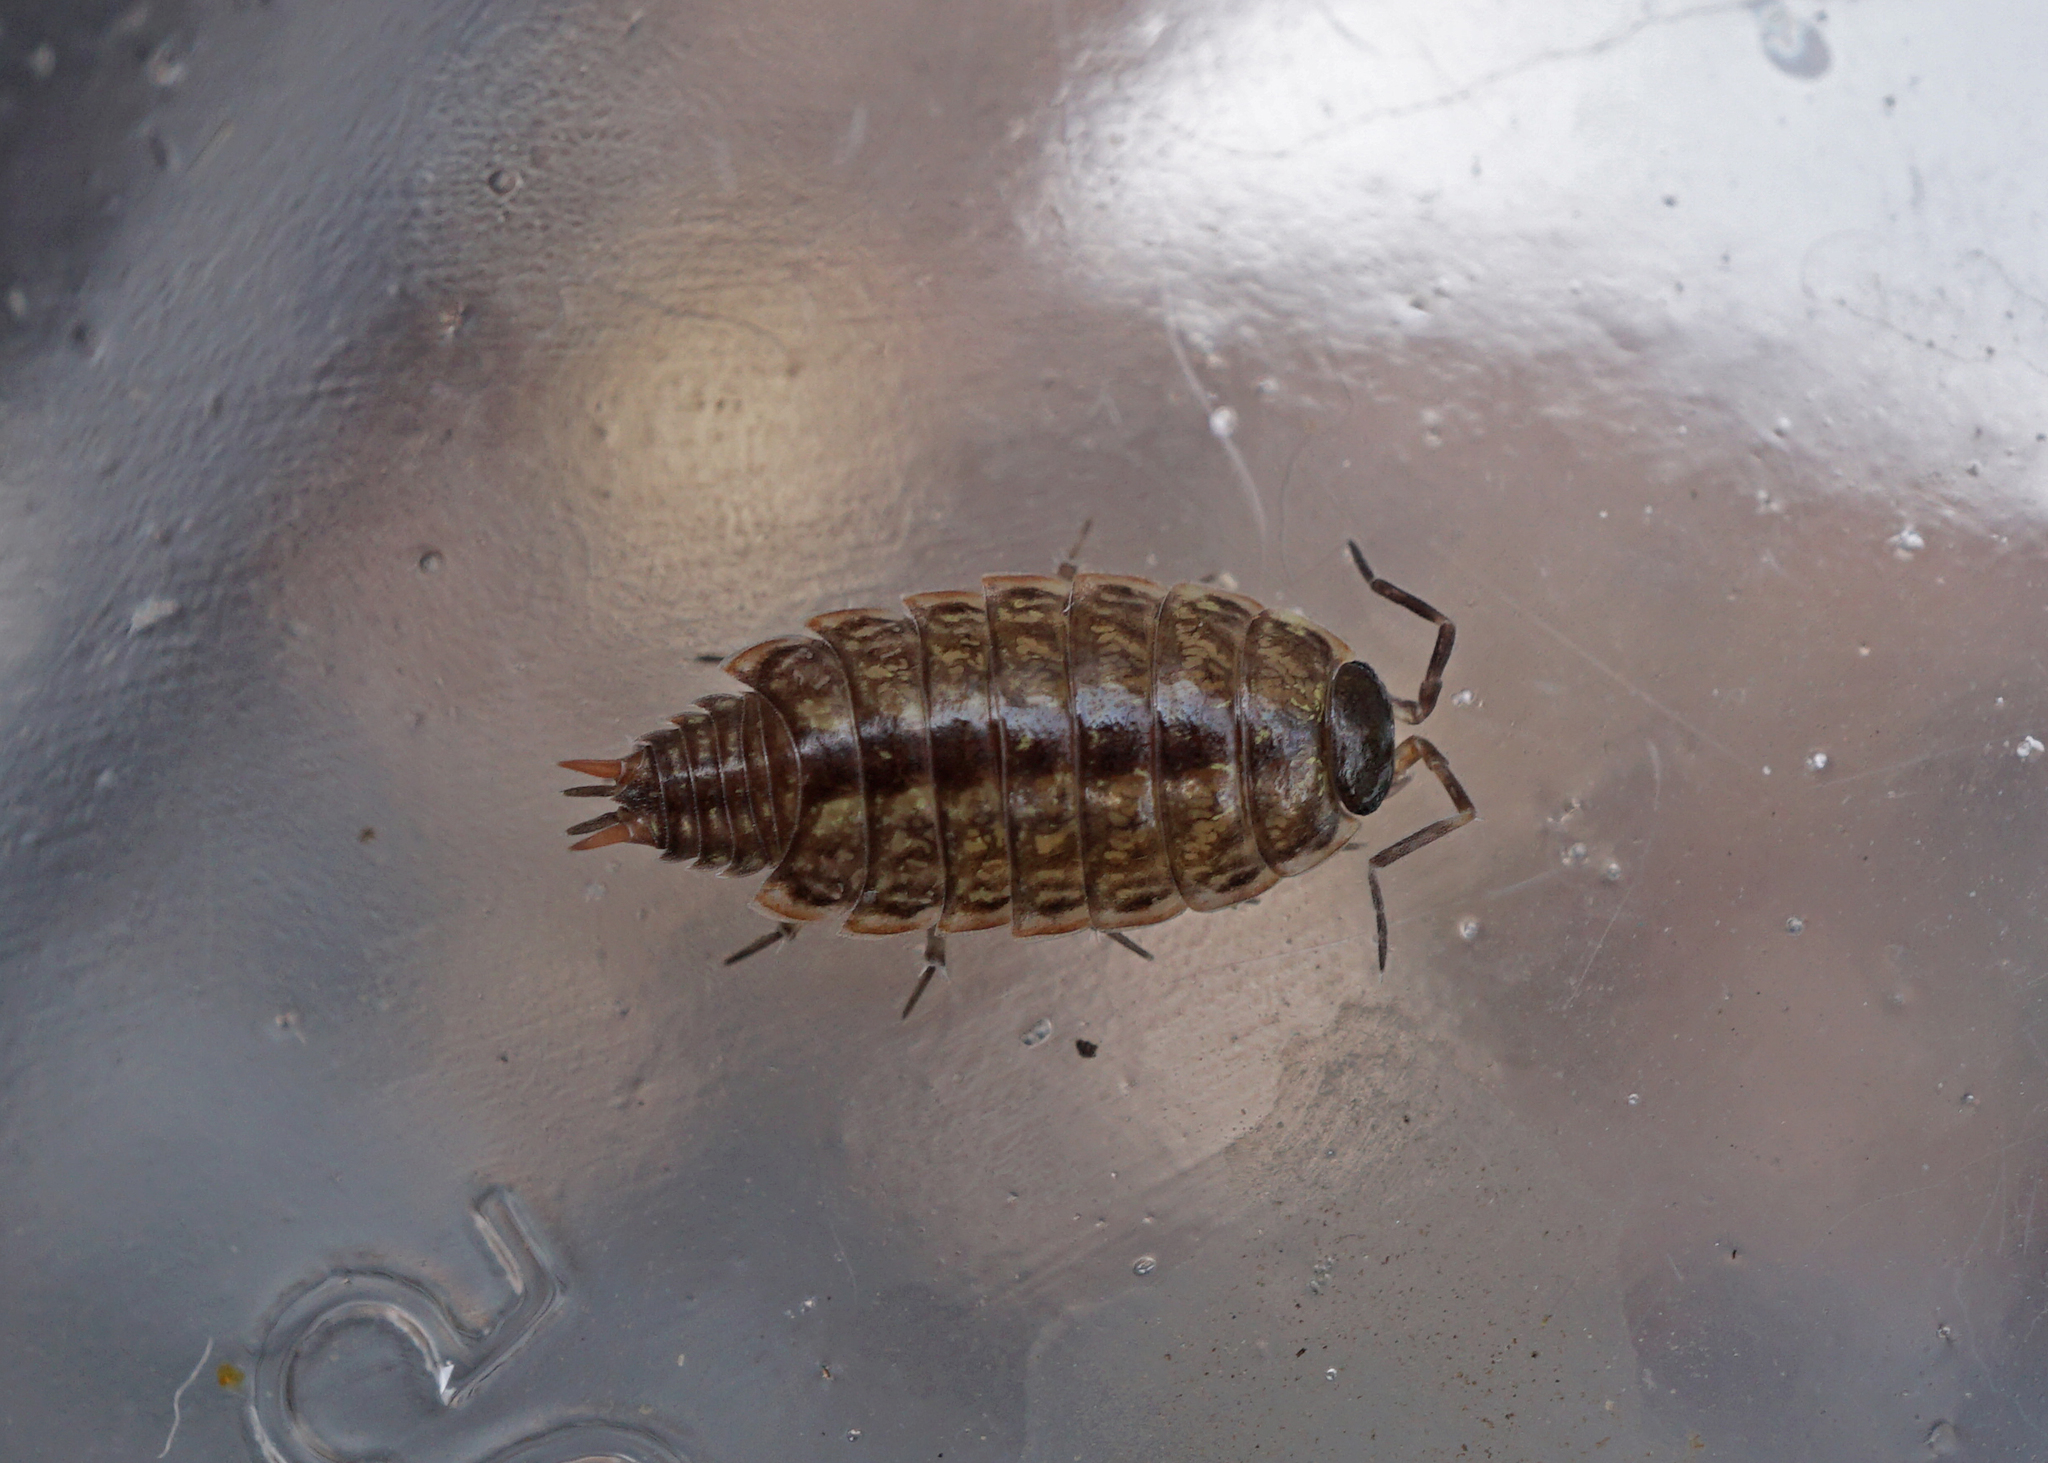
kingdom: Animalia
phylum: Arthropoda
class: Malacostraca
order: Isopoda
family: Philosciidae
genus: Philoscia
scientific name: Philoscia muscorum
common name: Common striped woodlouse
